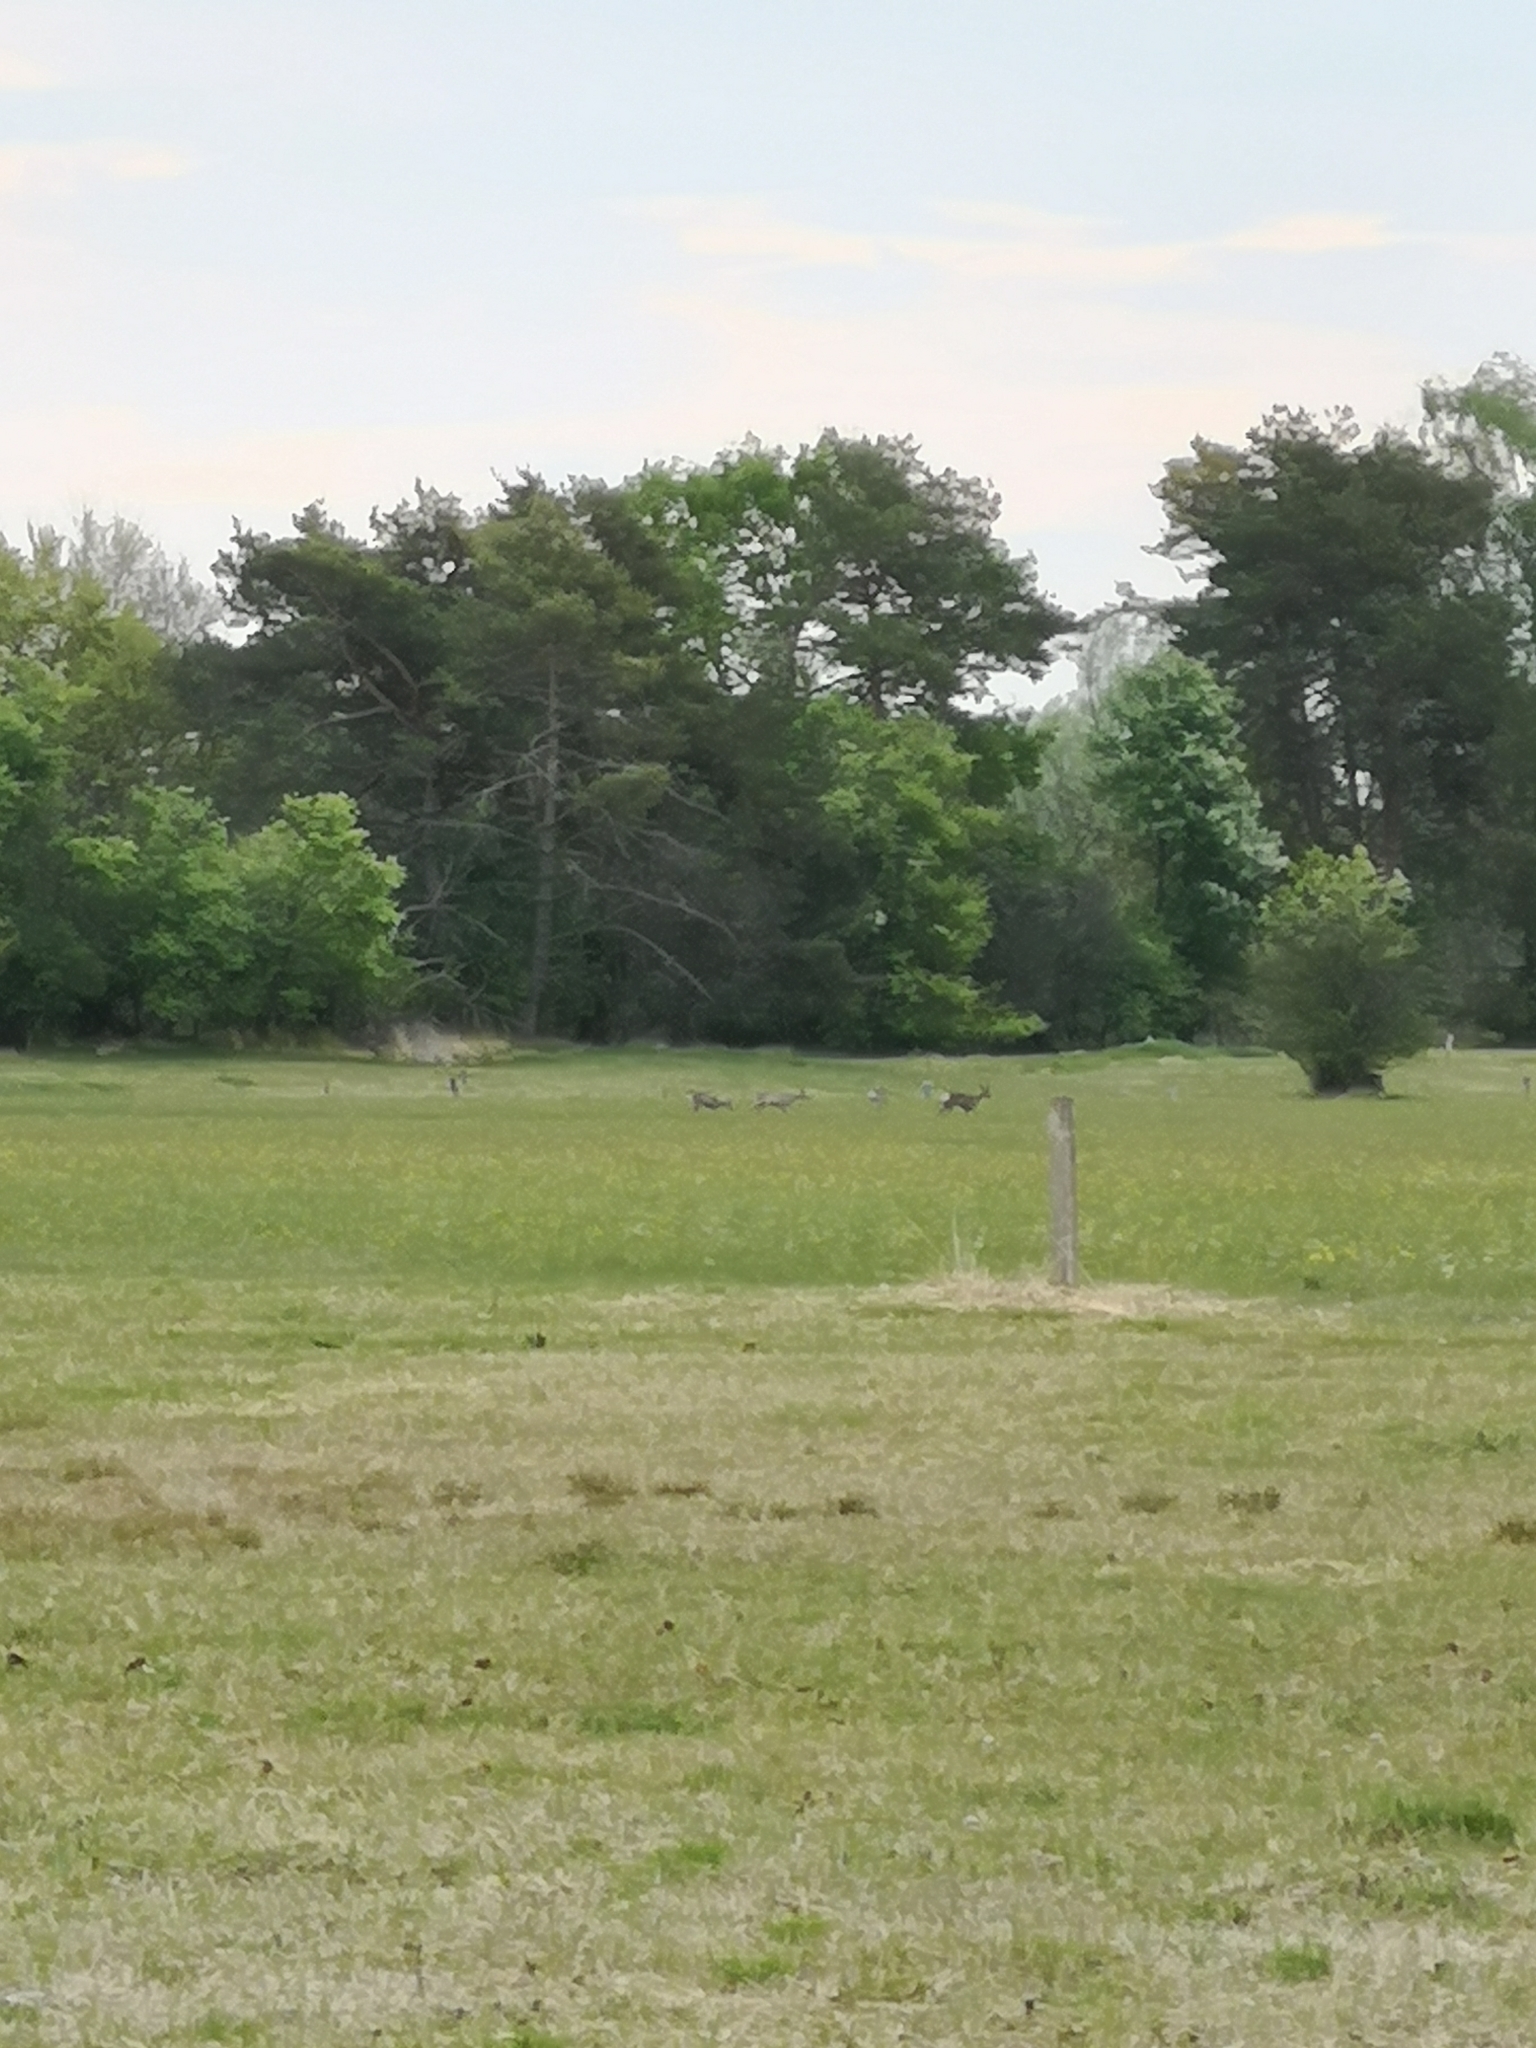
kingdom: Animalia
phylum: Chordata
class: Mammalia
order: Artiodactyla
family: Cervidae
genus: Capreolus
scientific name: Capreolus capreolus
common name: Western roe deer
